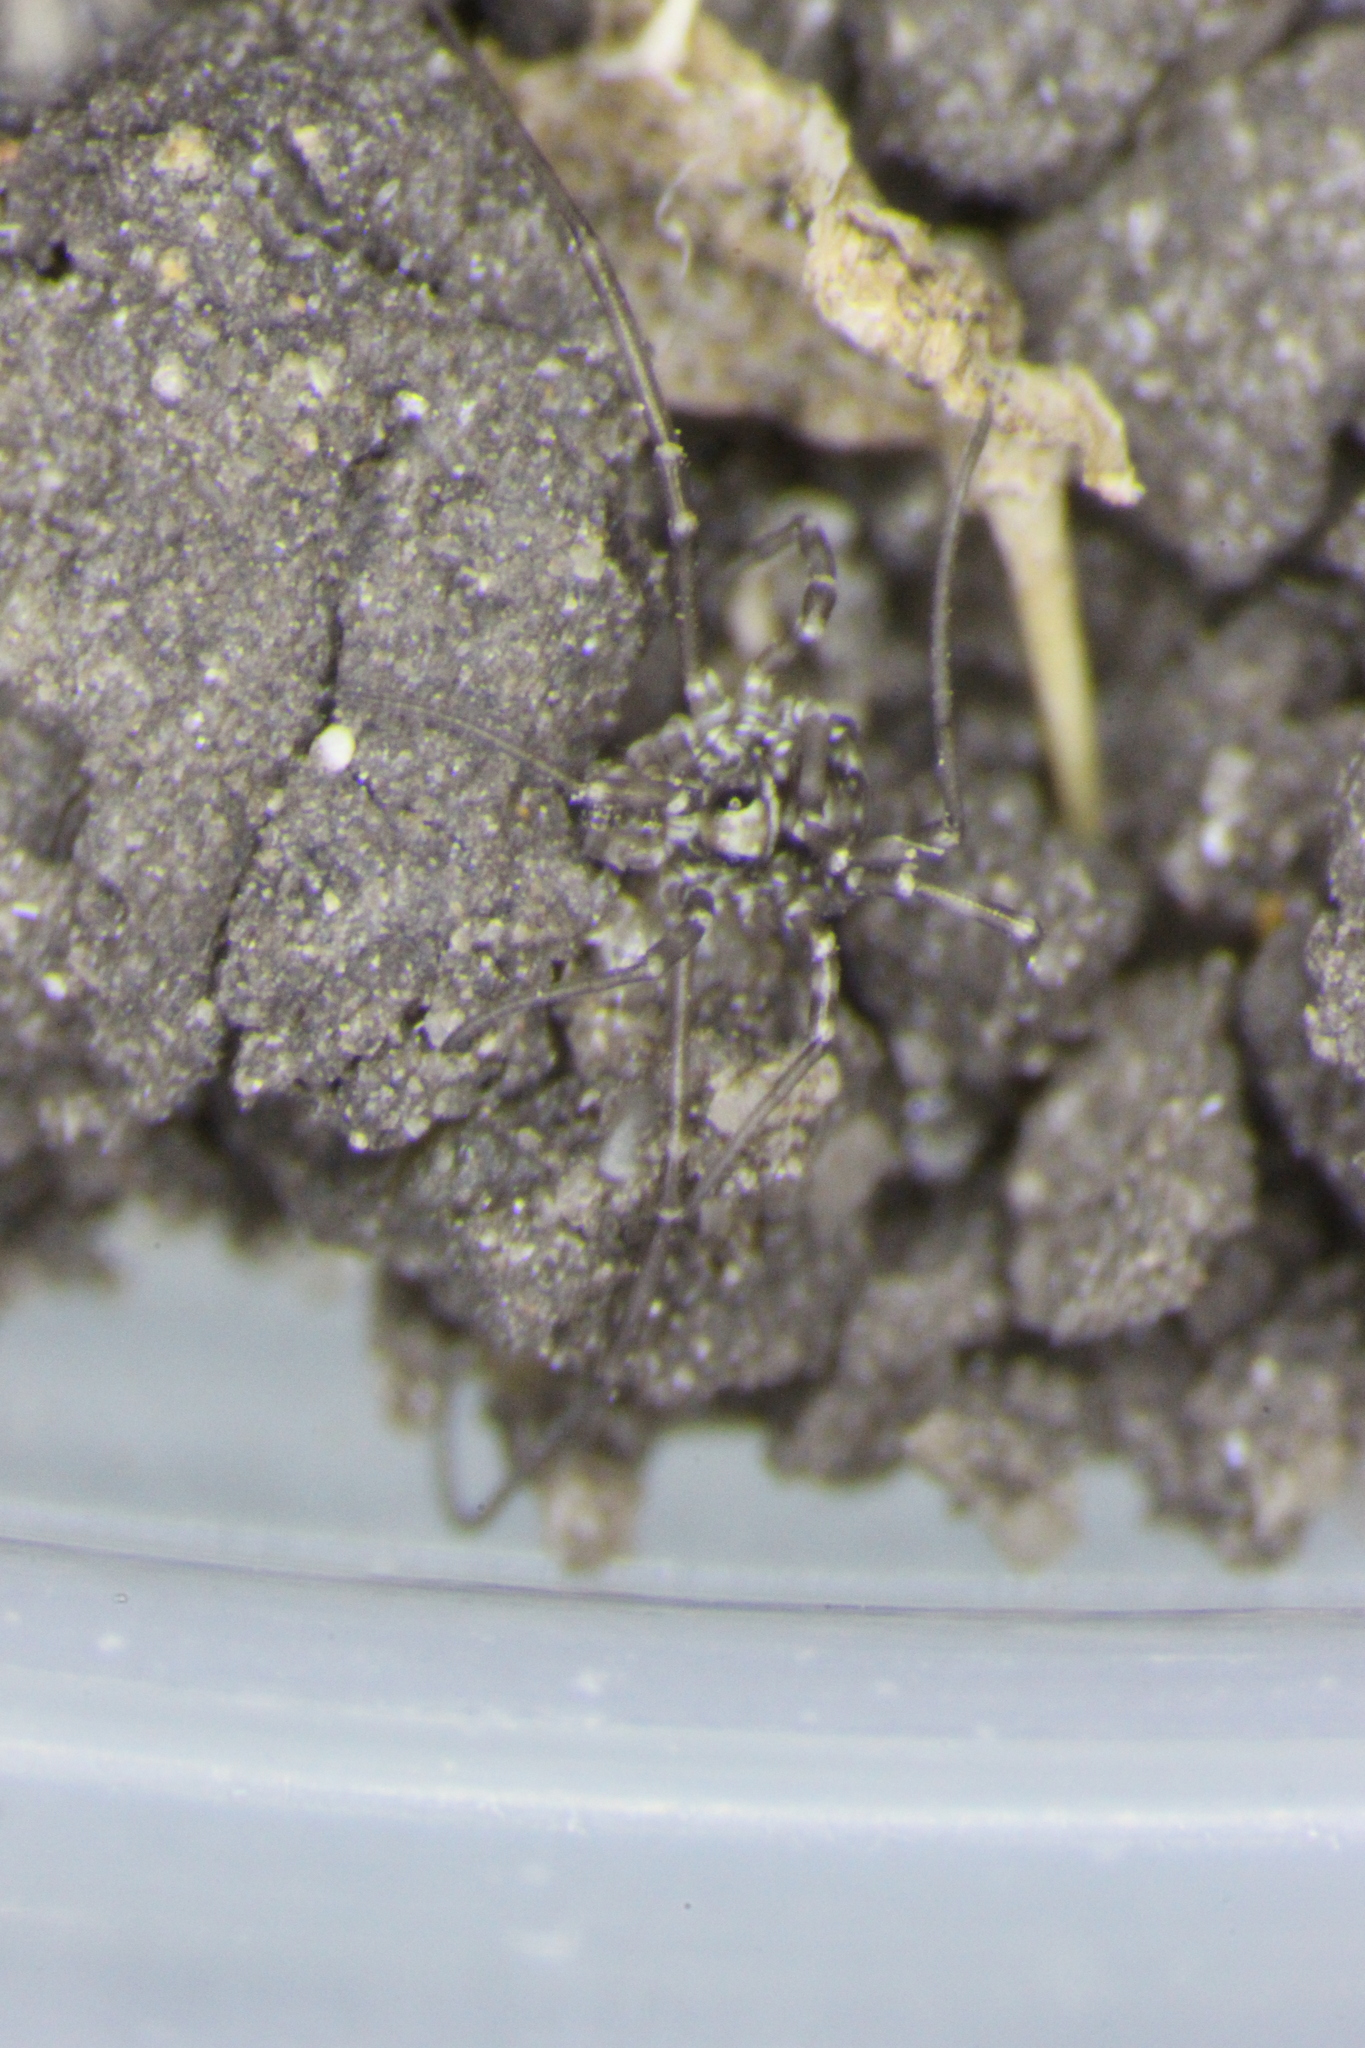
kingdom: Animalia
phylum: Arthropoda
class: Arachnida
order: Opiliones
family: Phalangiidae
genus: Phalangium
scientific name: Phalangium opilio
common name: Daddy longleg
